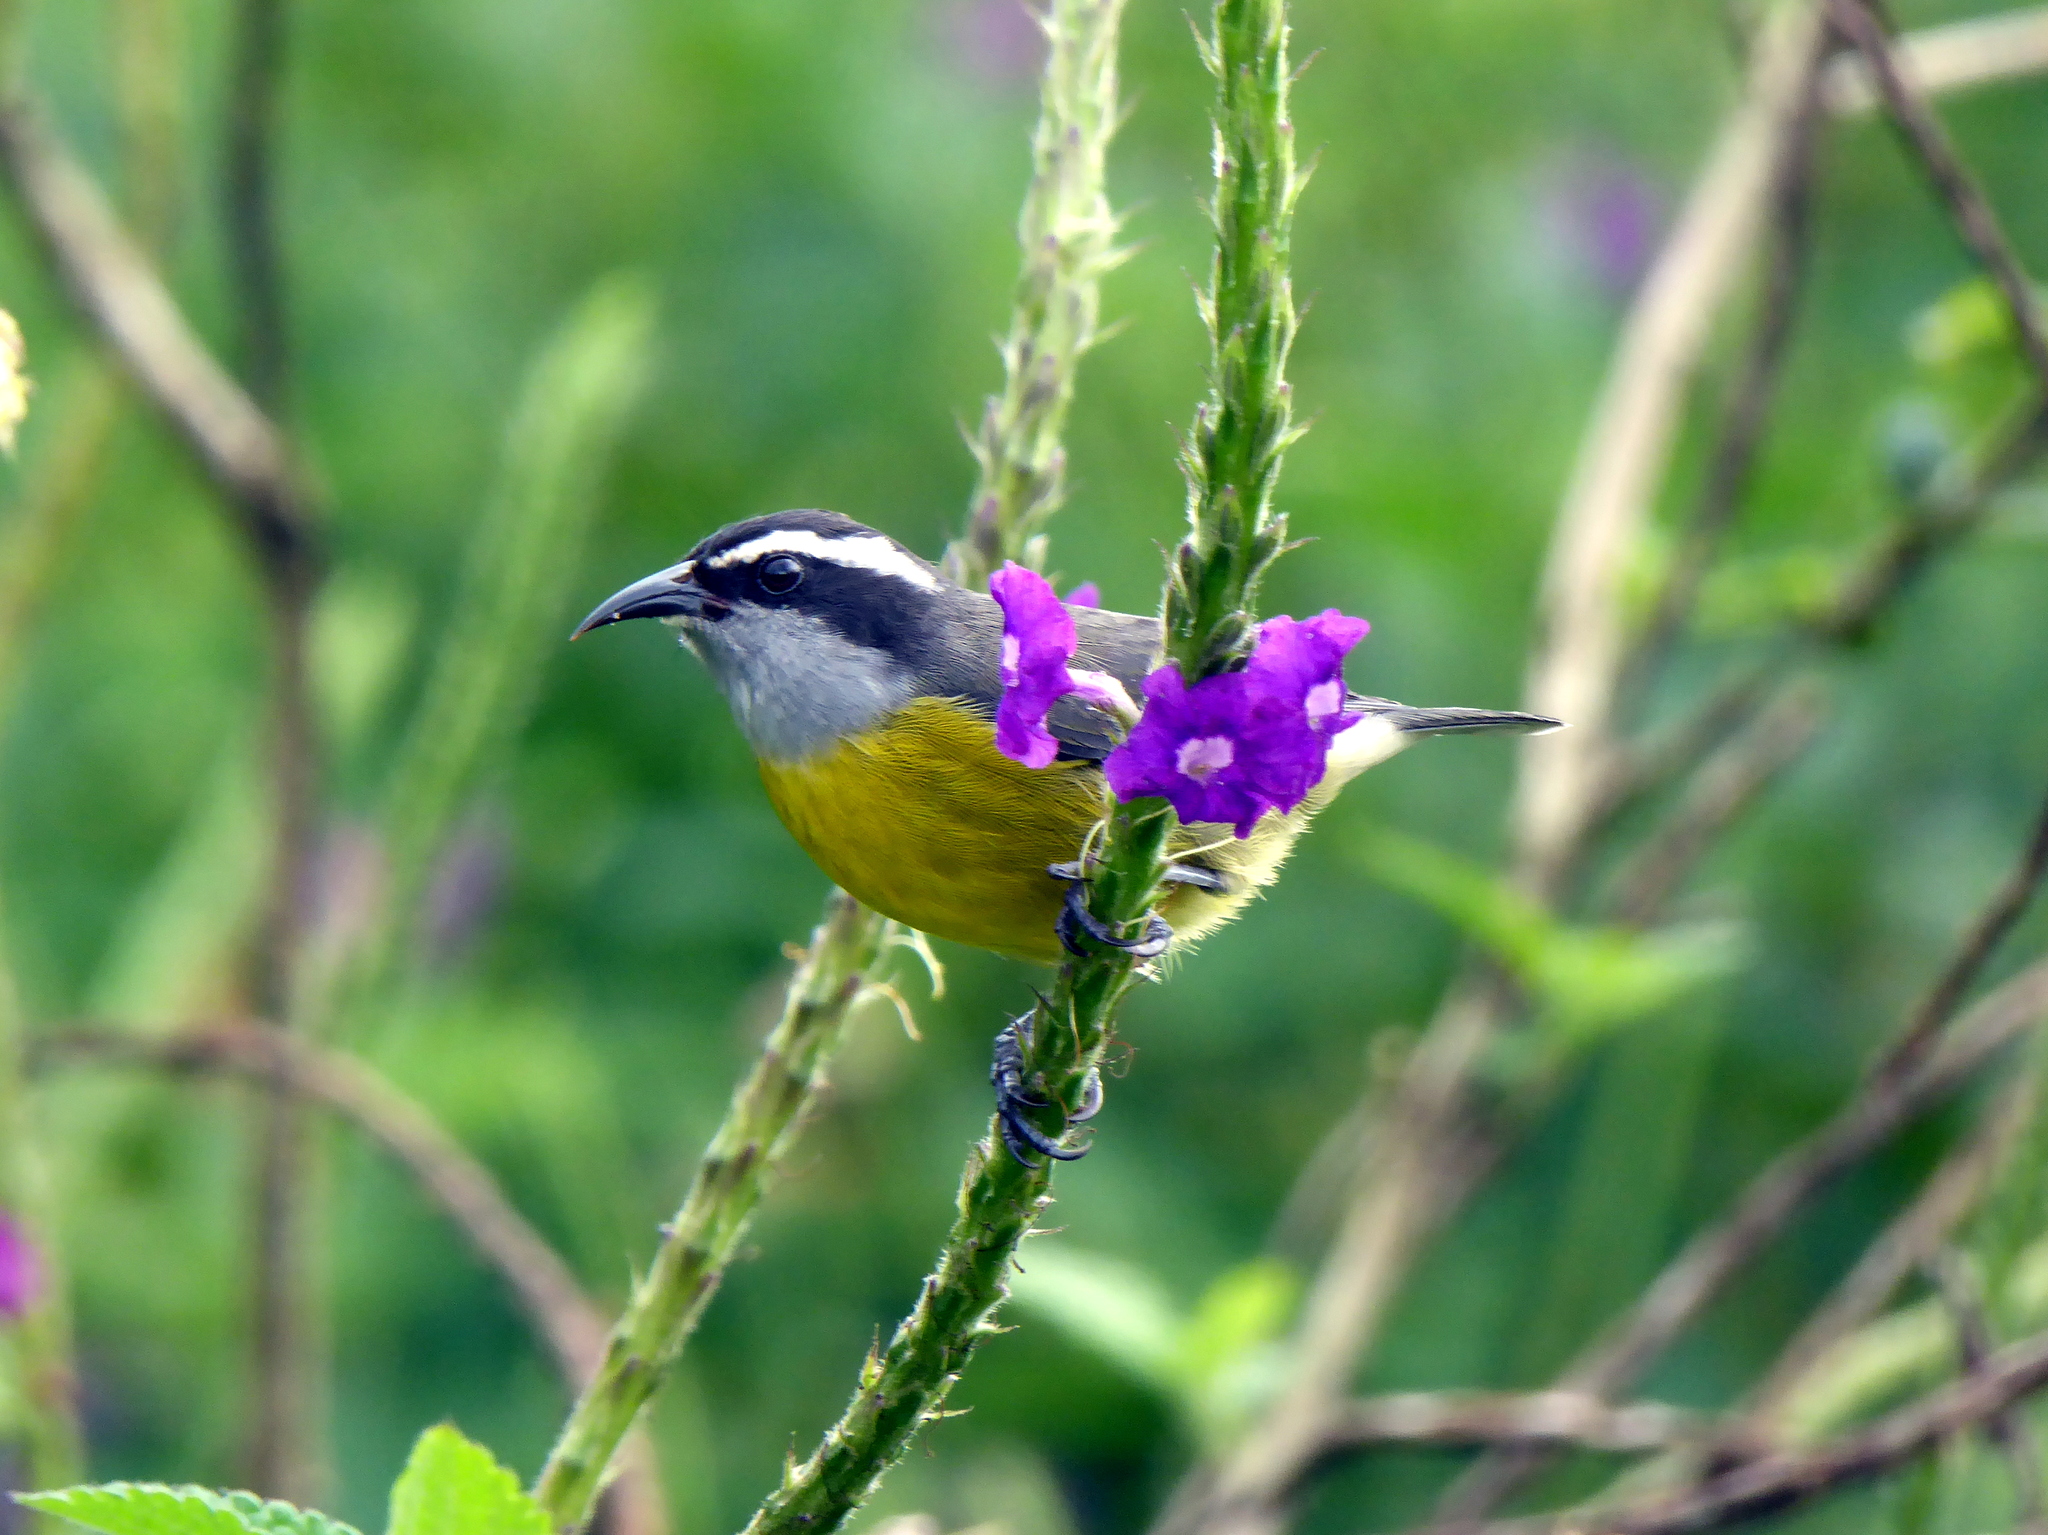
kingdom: Animalia
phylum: Chordata
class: Aves
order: Passeriformes
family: Thraupidae
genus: Coereba
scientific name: Coereba flaveola
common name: Bananaquit
